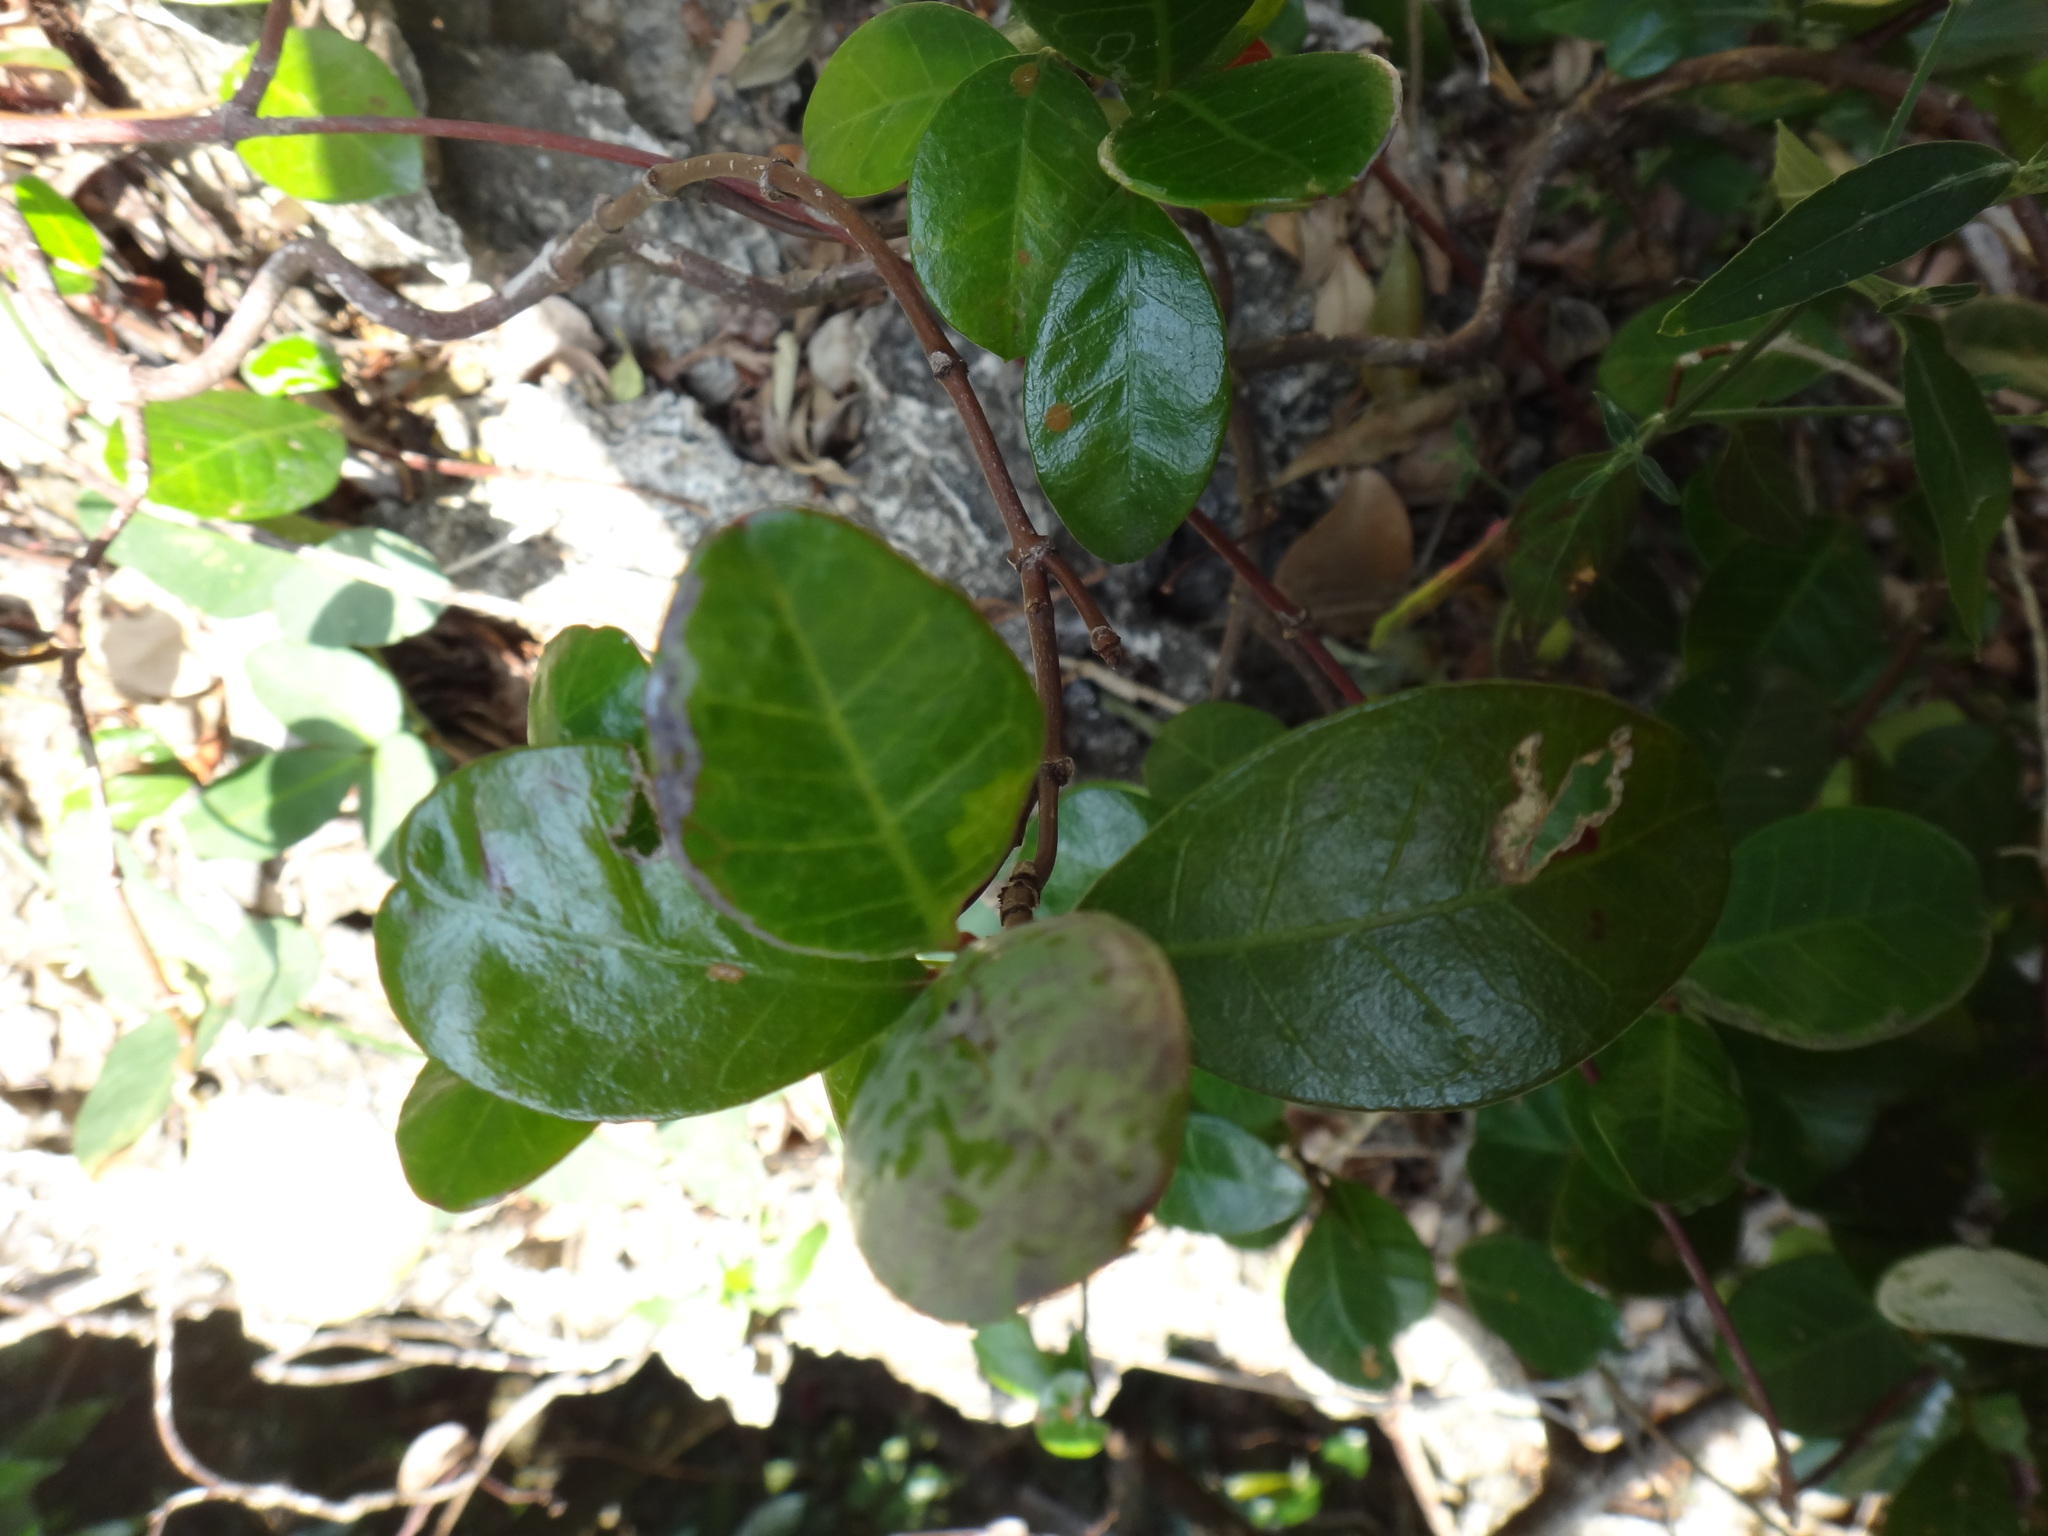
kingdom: Plantae
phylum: Tracheophyta
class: Magnoliopsida
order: Gentianales
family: Apocynaceae
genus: Parsonsia
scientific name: Parsonsia alboflavescens
